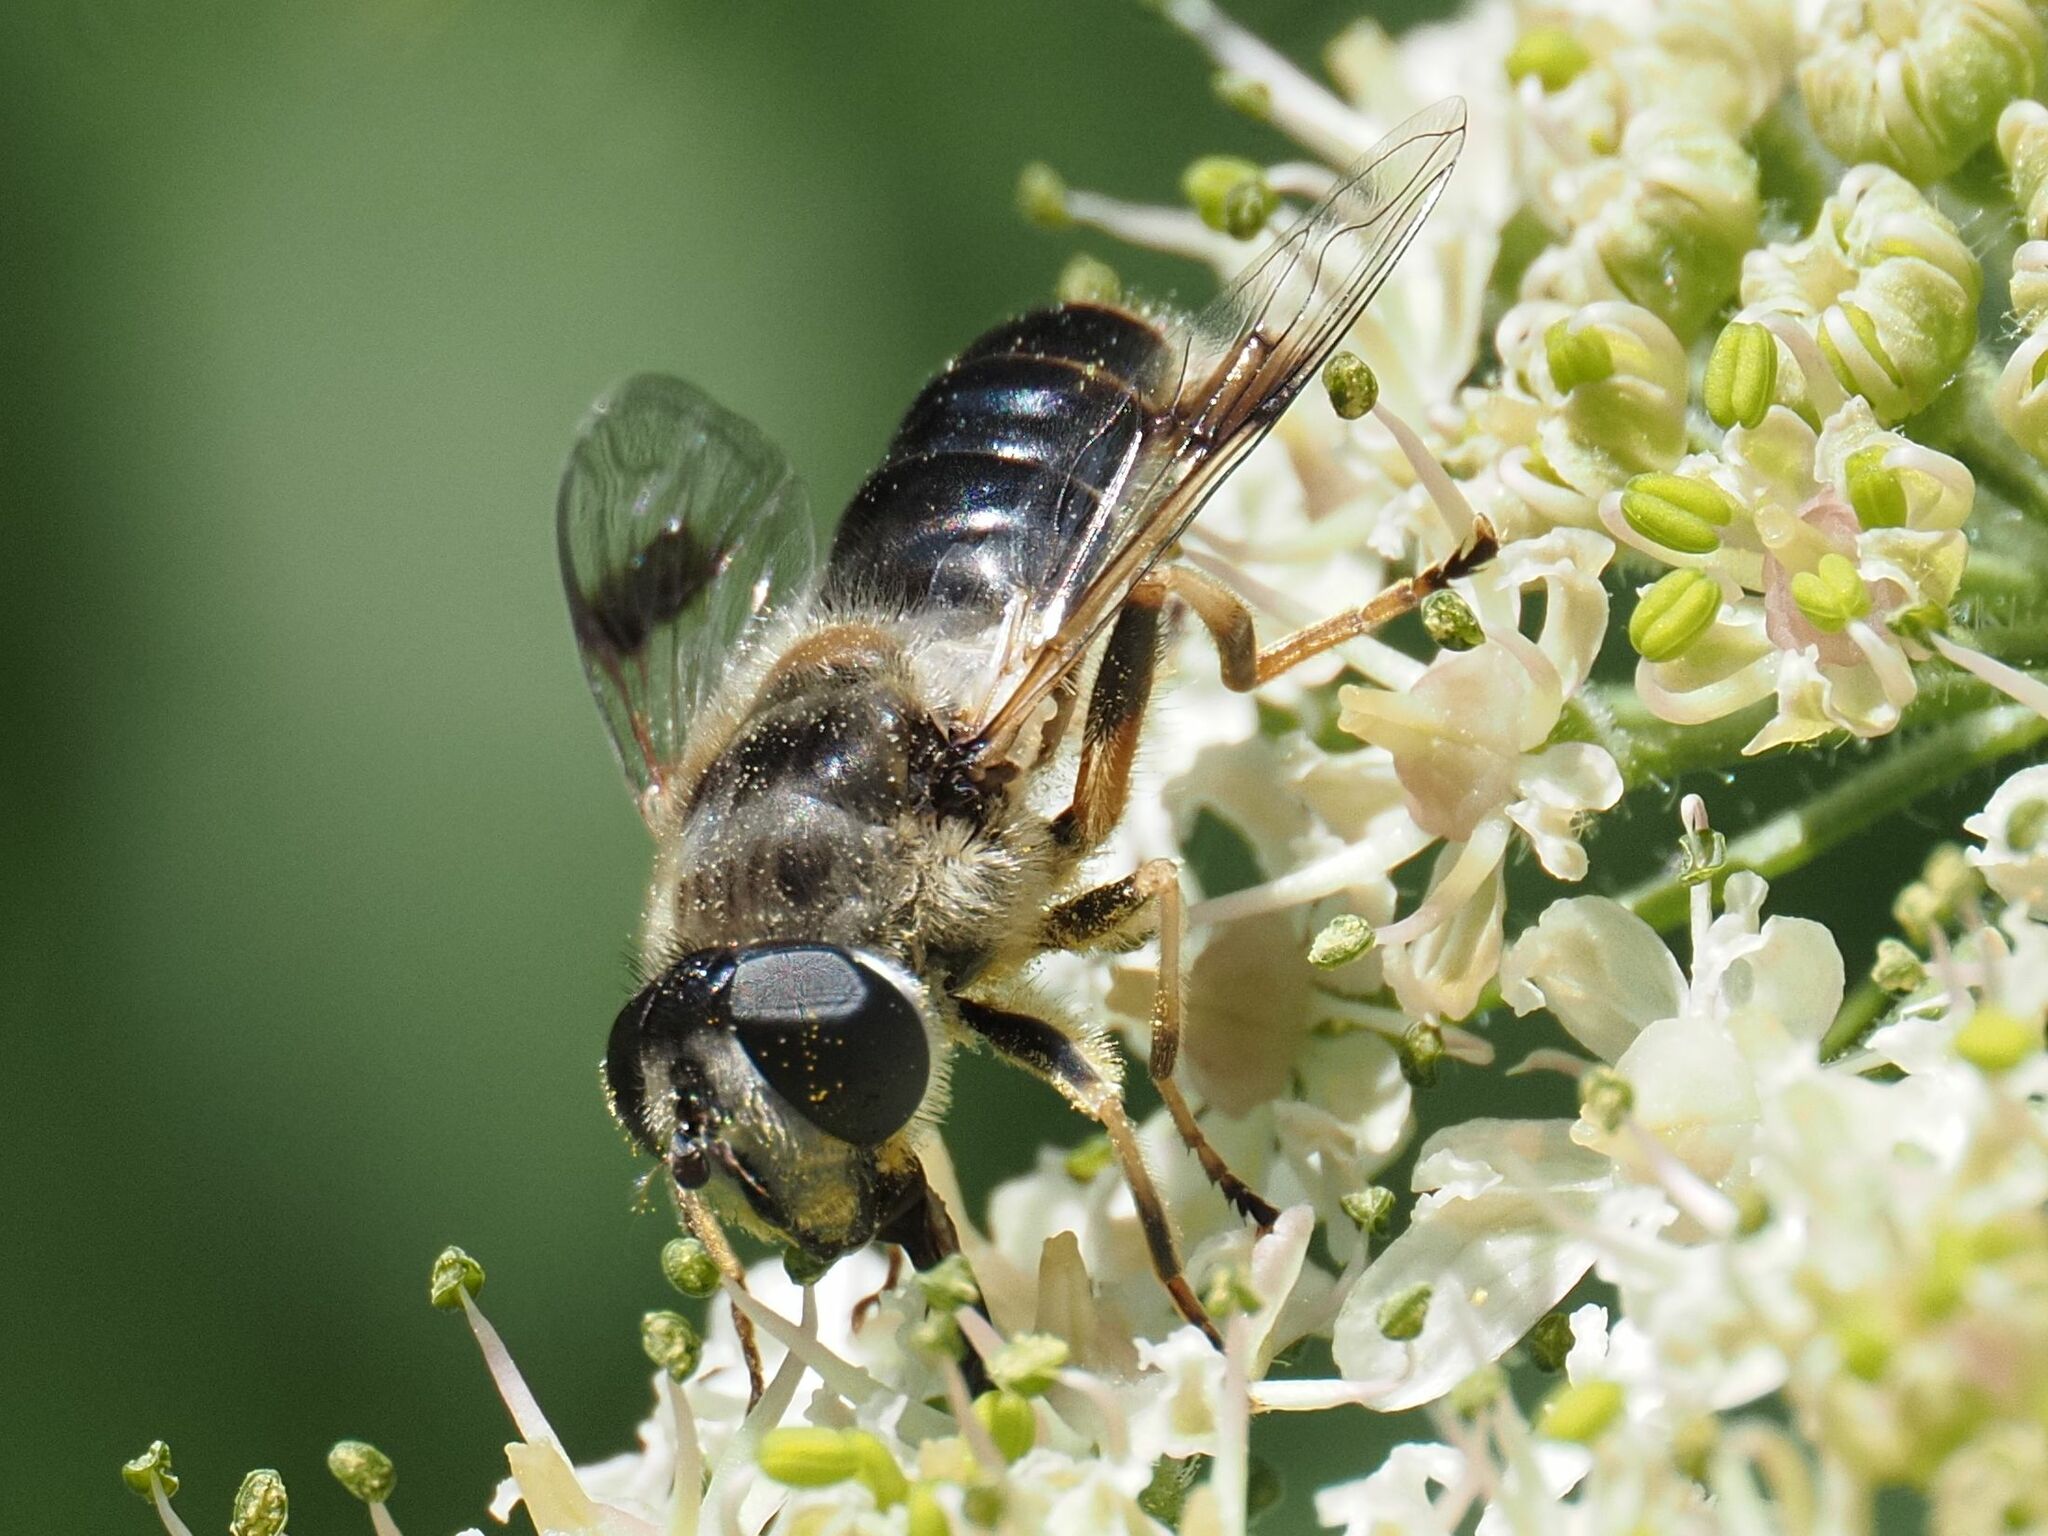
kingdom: Animalia
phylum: Arthropoda
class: Insecta
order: Diptera
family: Syrphidae
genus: Eristalis
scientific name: Eristalis alpina
